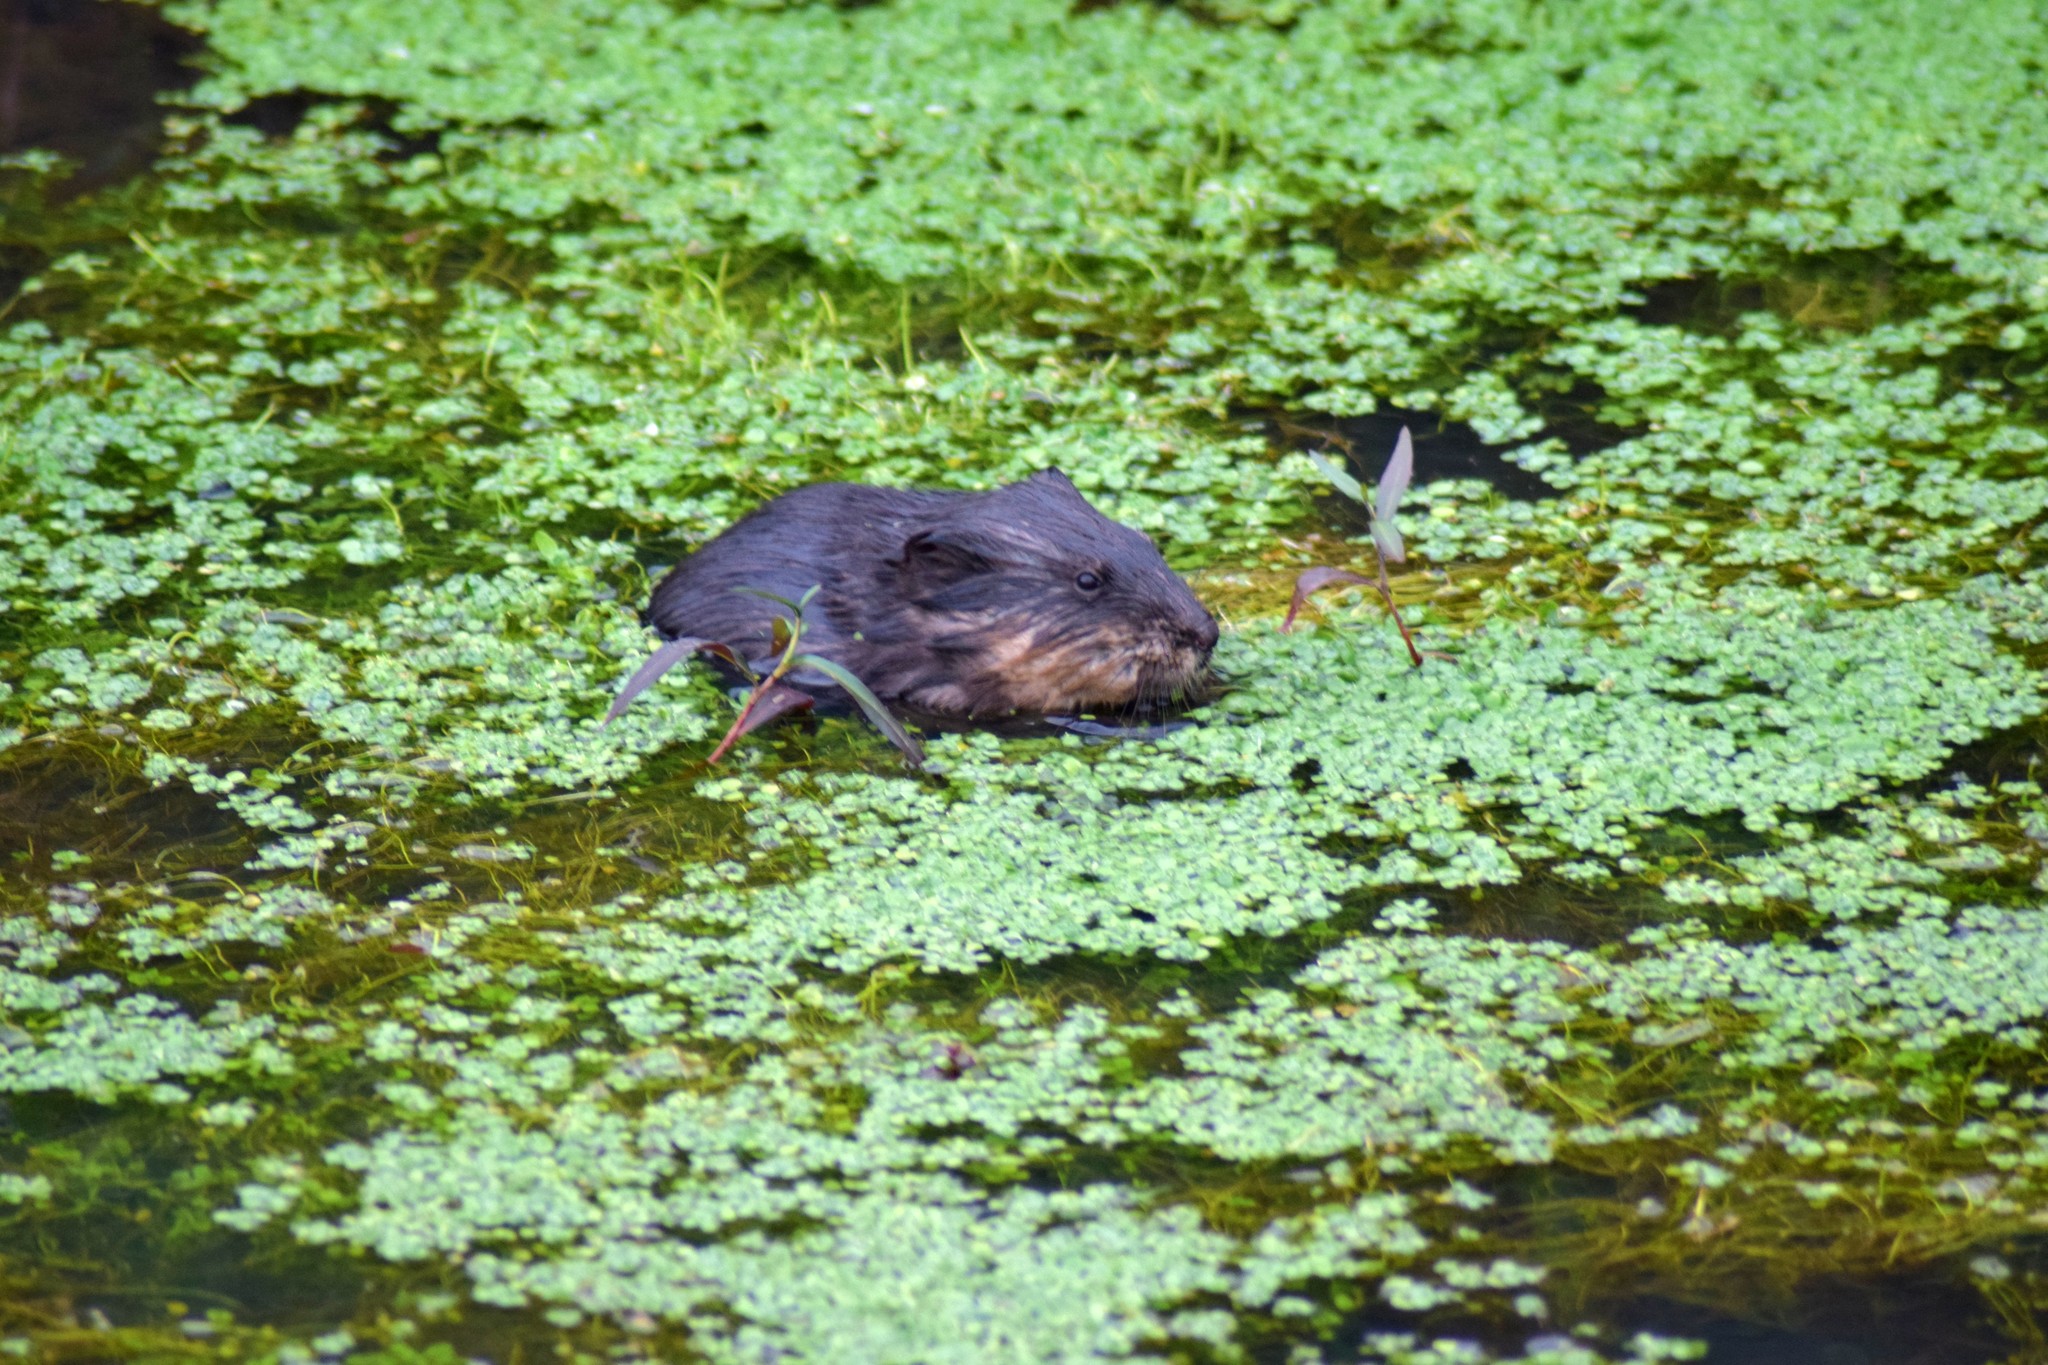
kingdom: Animalia
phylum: Chordata
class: Mammalia
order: Rodentia
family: Cricetidae
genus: Ondatra
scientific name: Ondatra zibethicus
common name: Muskrat
